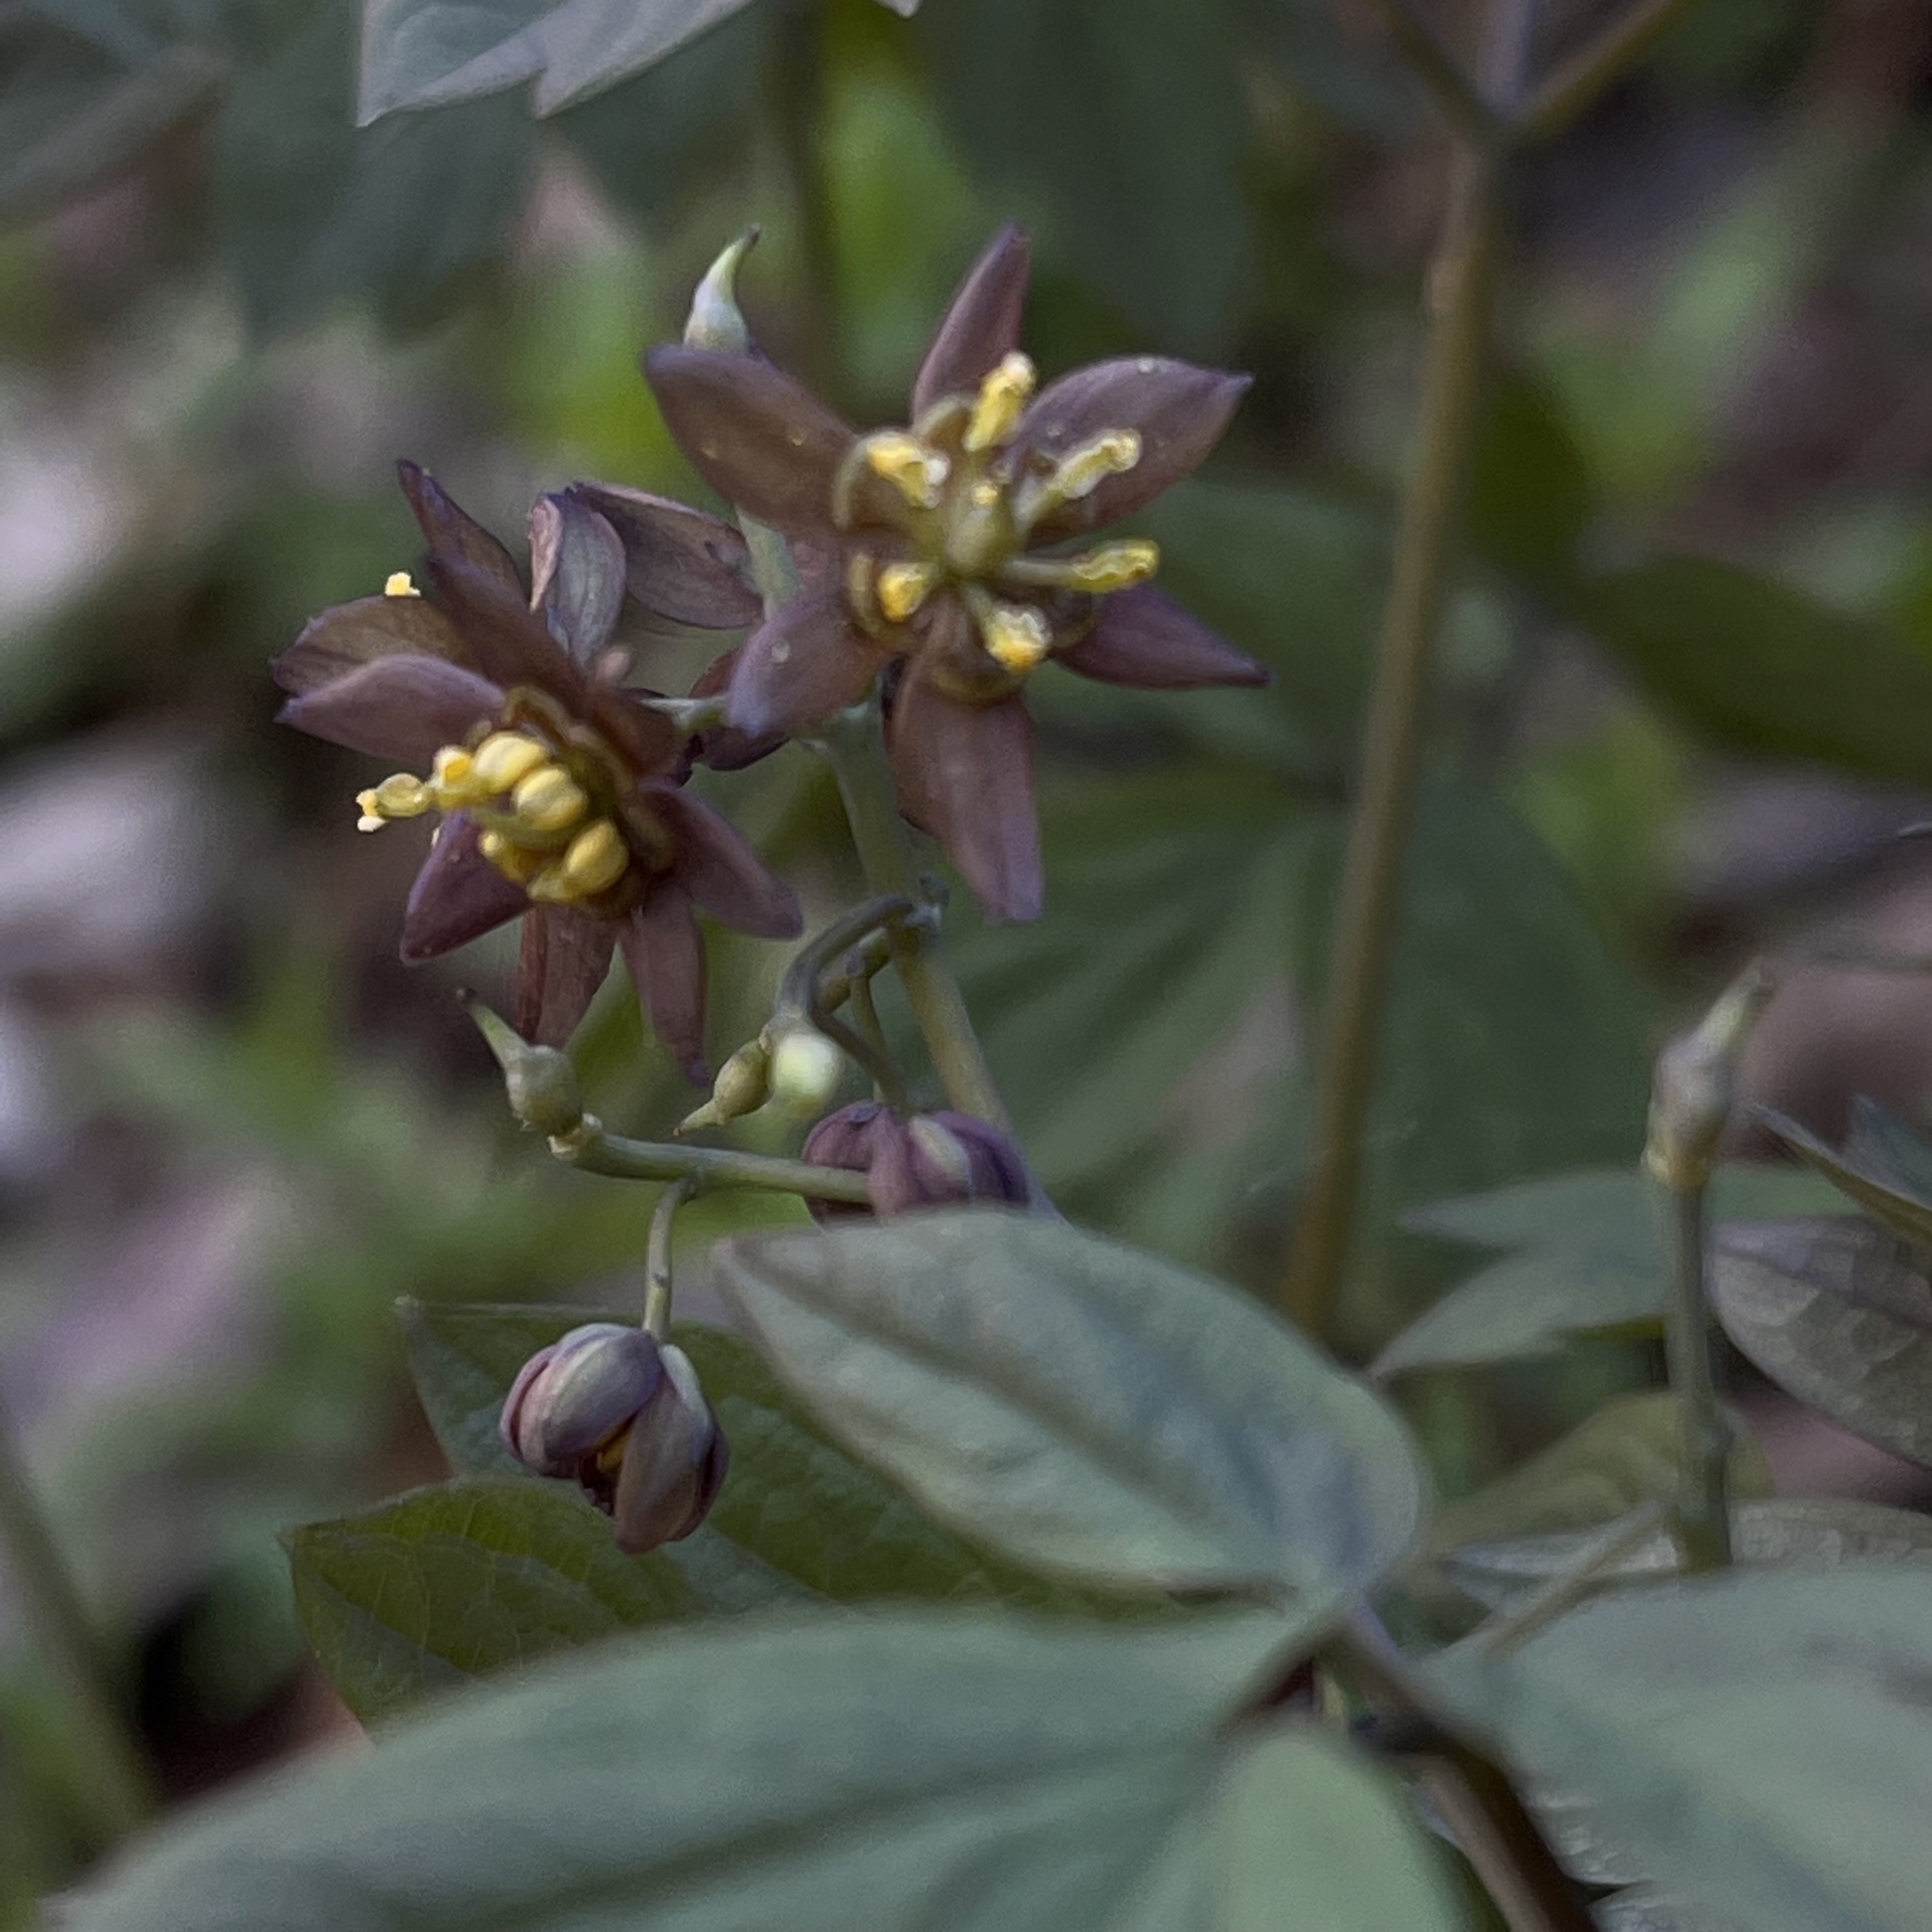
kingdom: Plantae
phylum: Tracheophyta
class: Magnoliopsida
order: Ranunculales
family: Berberidaceae
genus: Caulophyllum
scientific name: Caulophyllum giganteum
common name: Blue cohosh
